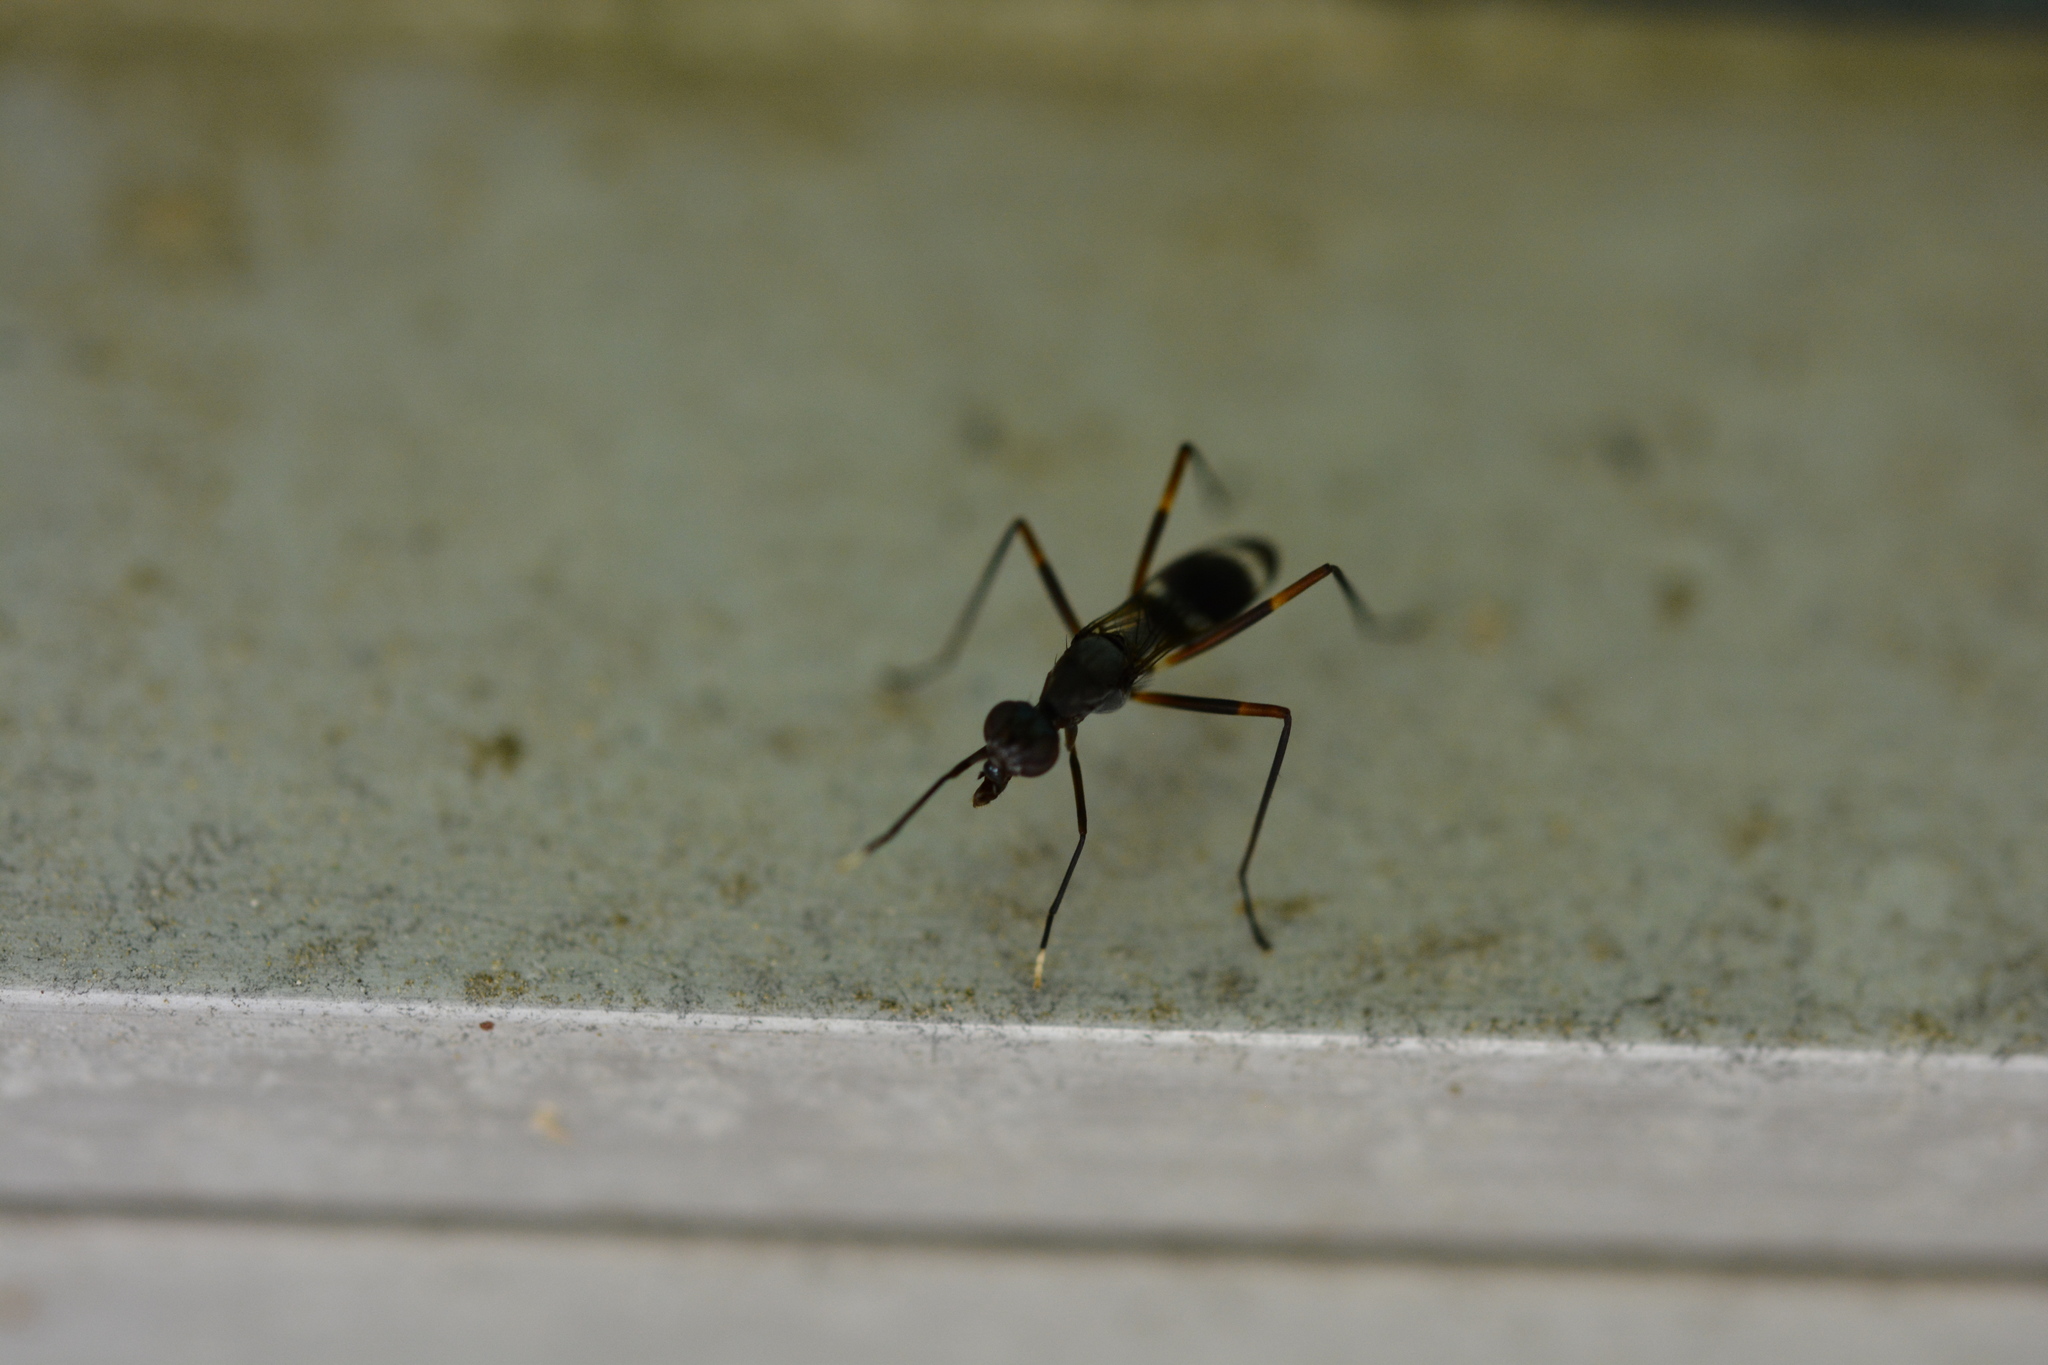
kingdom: Animalia
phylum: Arthropoda
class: Insecta
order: Diptera
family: Micropezidae
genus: Taeniaptera
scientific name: Taeniaptera trivittata
